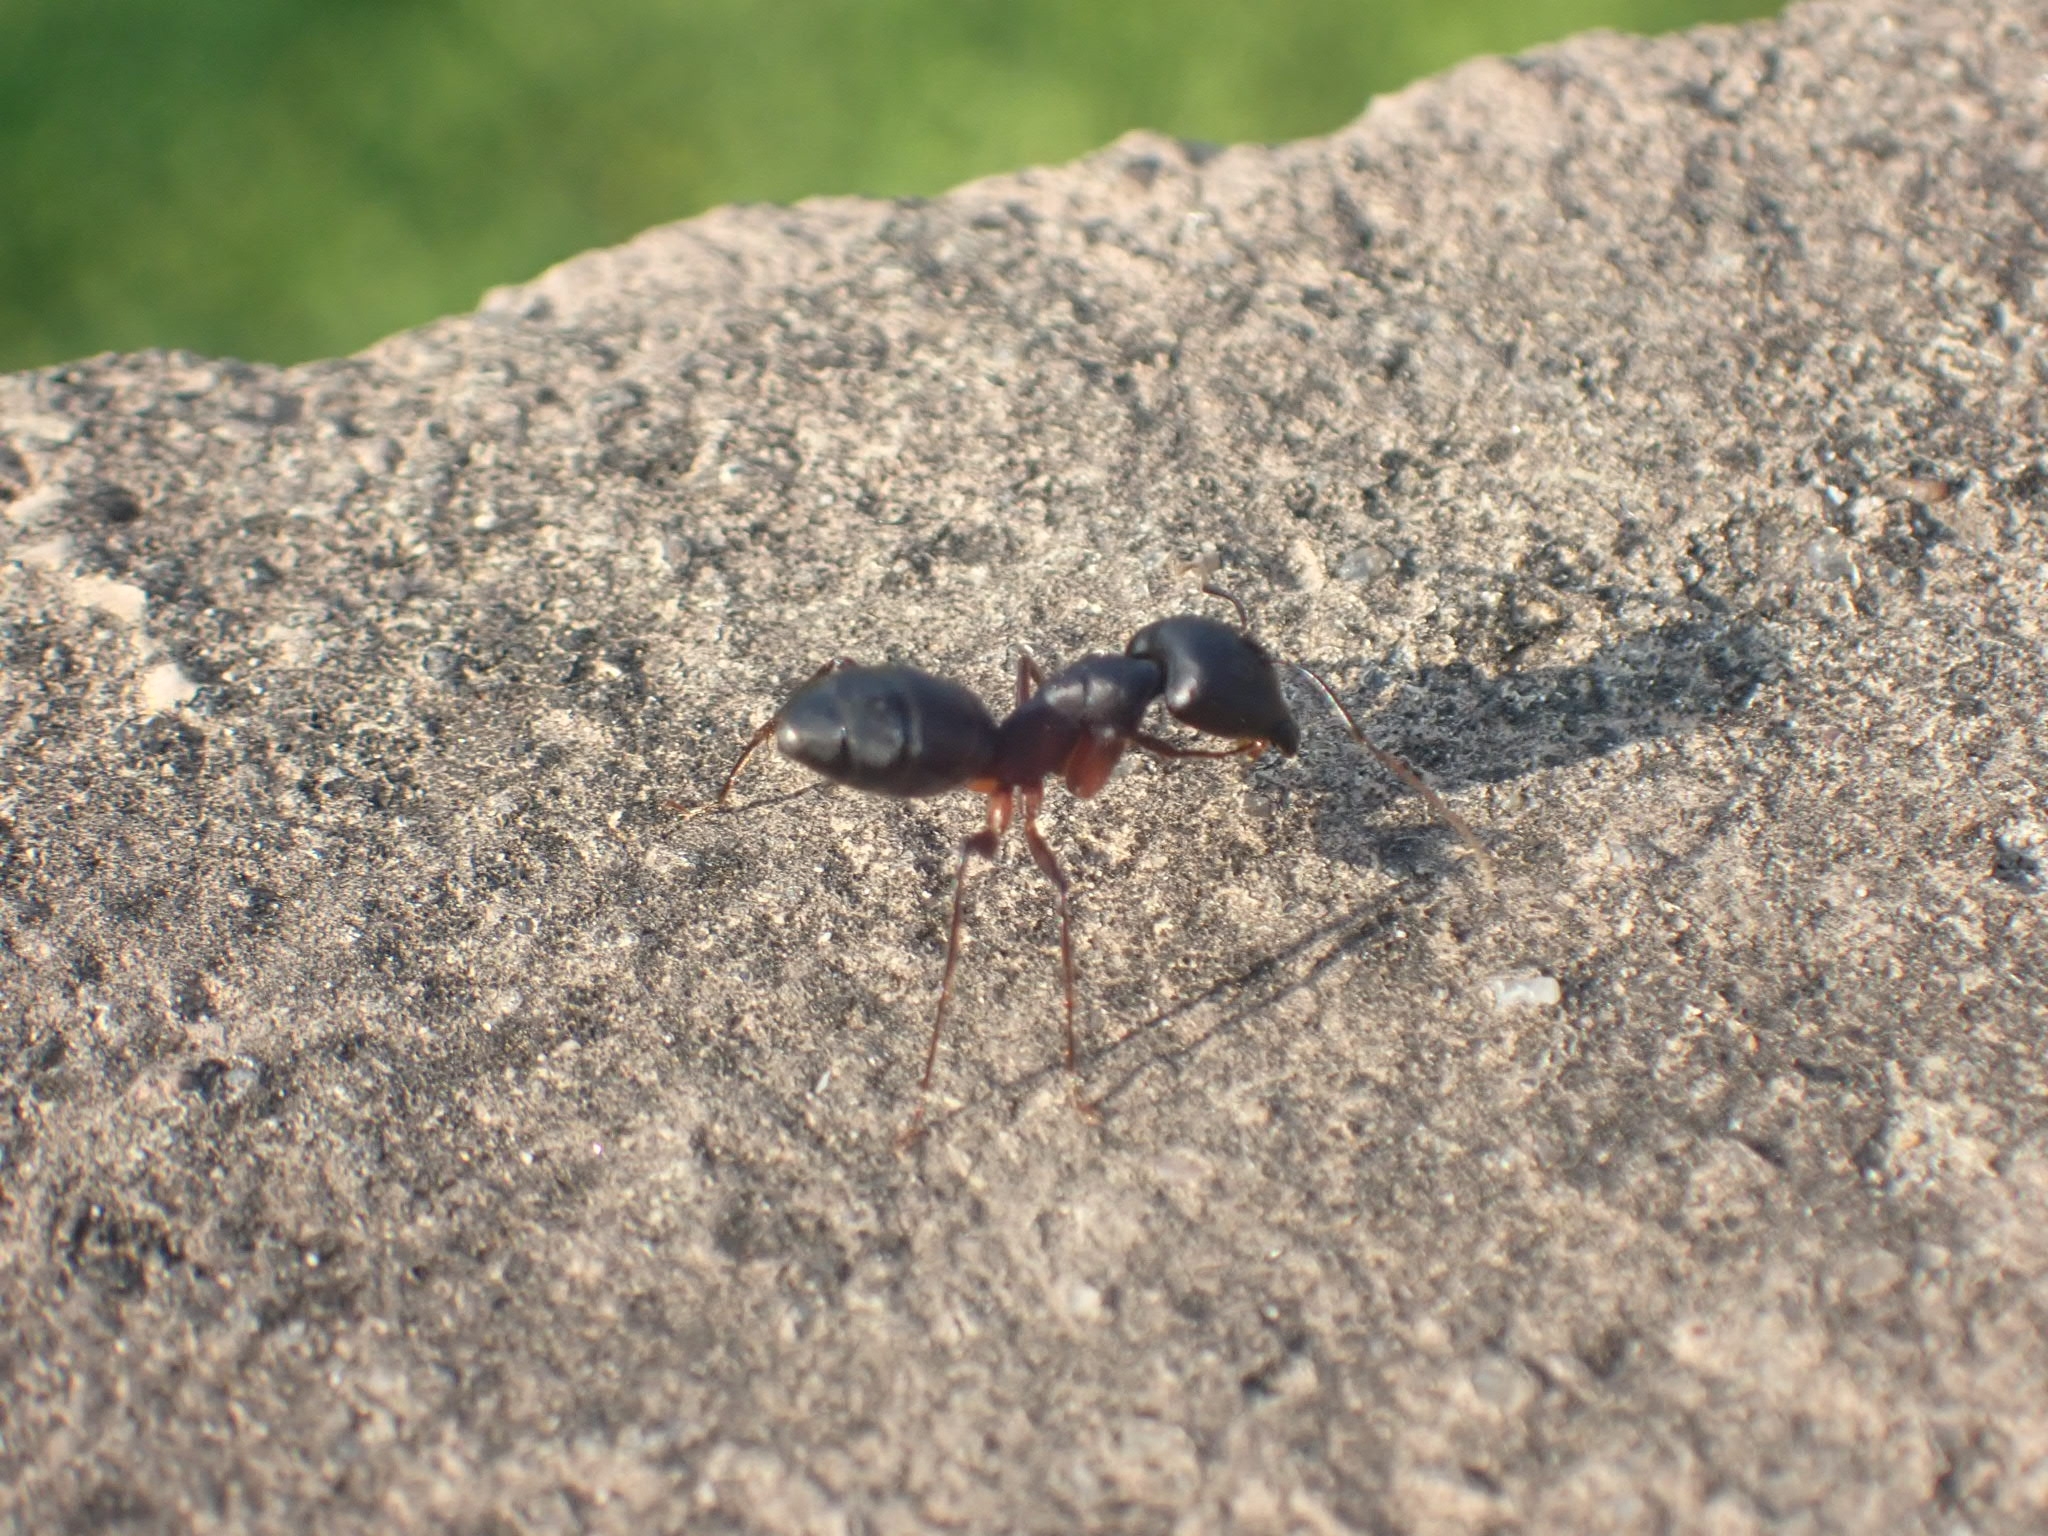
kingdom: Animalia
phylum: Arthropoda
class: Insecta
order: Hymenoptera
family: Formicidae
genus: Camponotus
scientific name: Camponotus compressus
